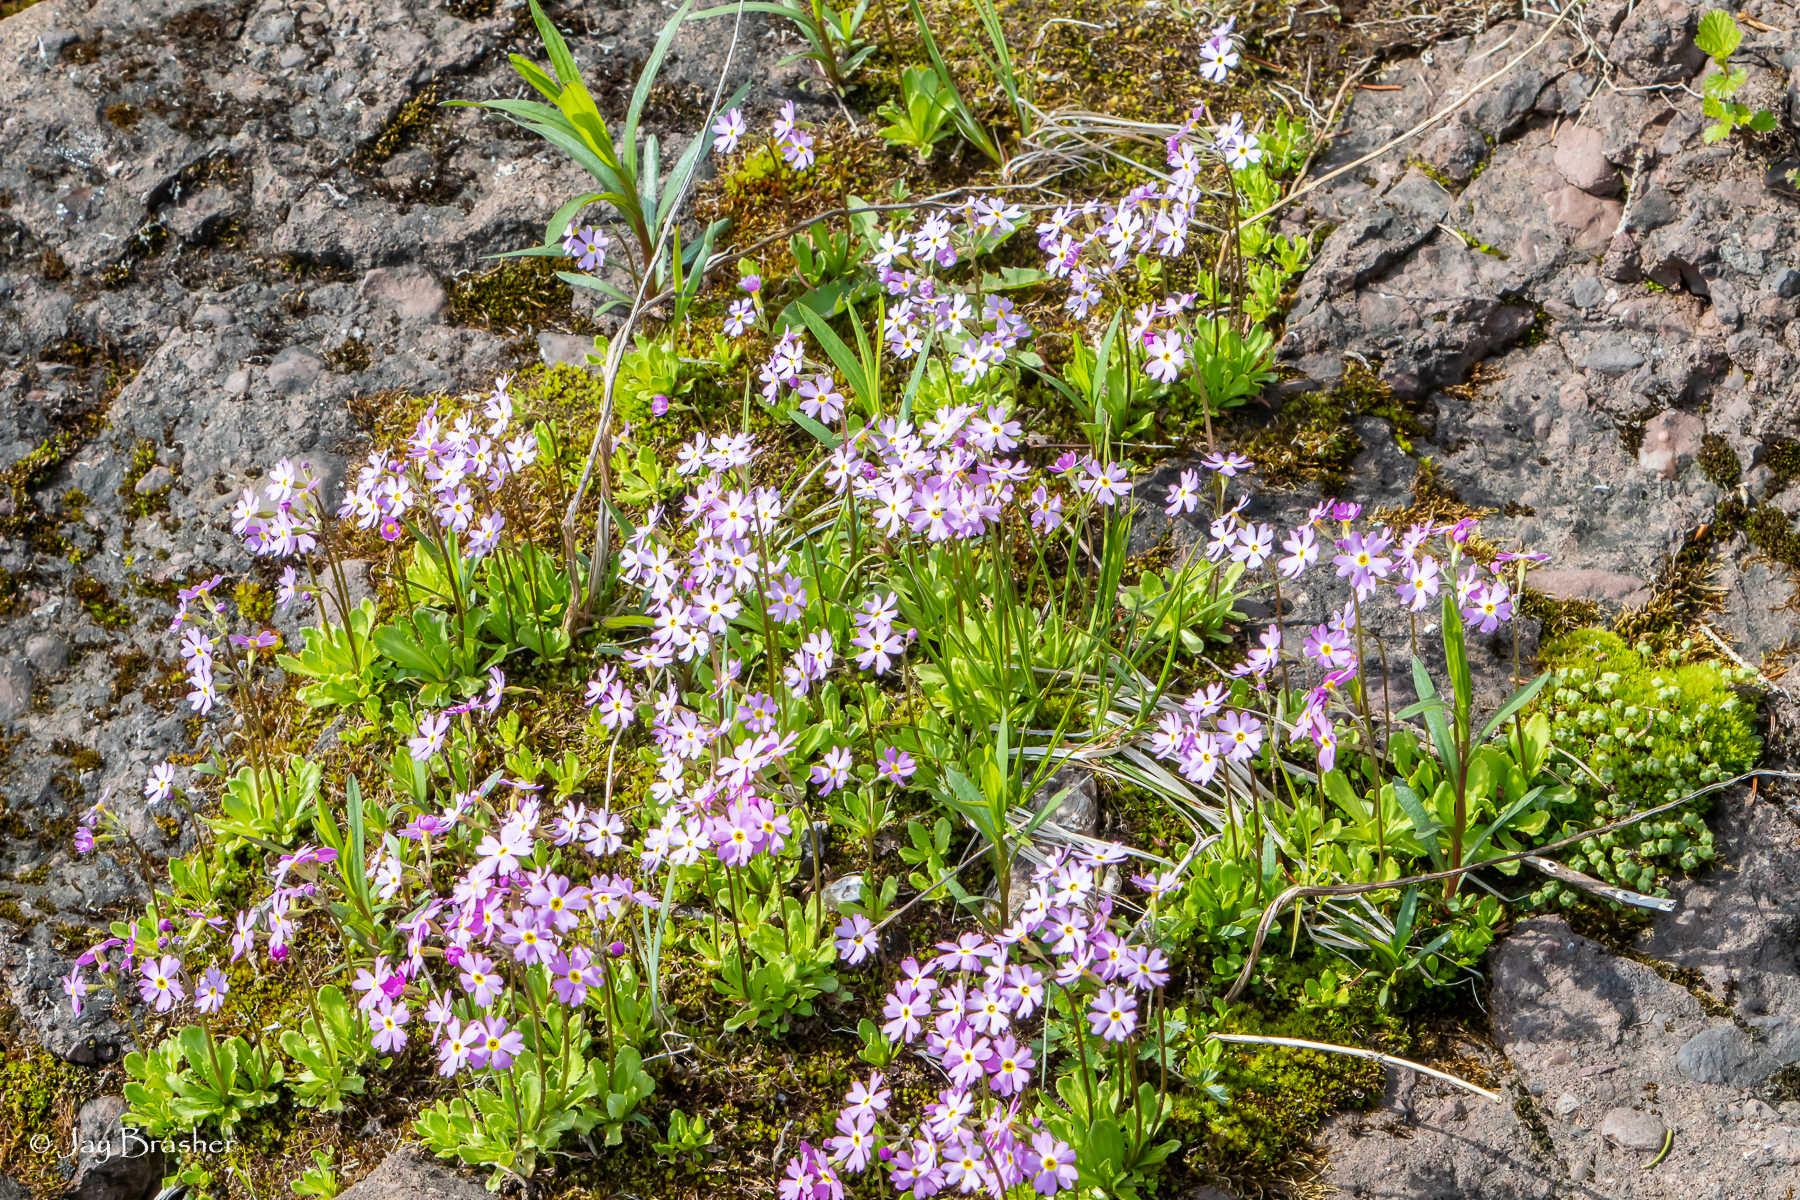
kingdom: Plantae
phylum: Tracheophyta
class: Magnoliopsida
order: Ericales
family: Primulaceae
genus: Primula
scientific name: Primula mistassinica
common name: Bird's-eye primrose
